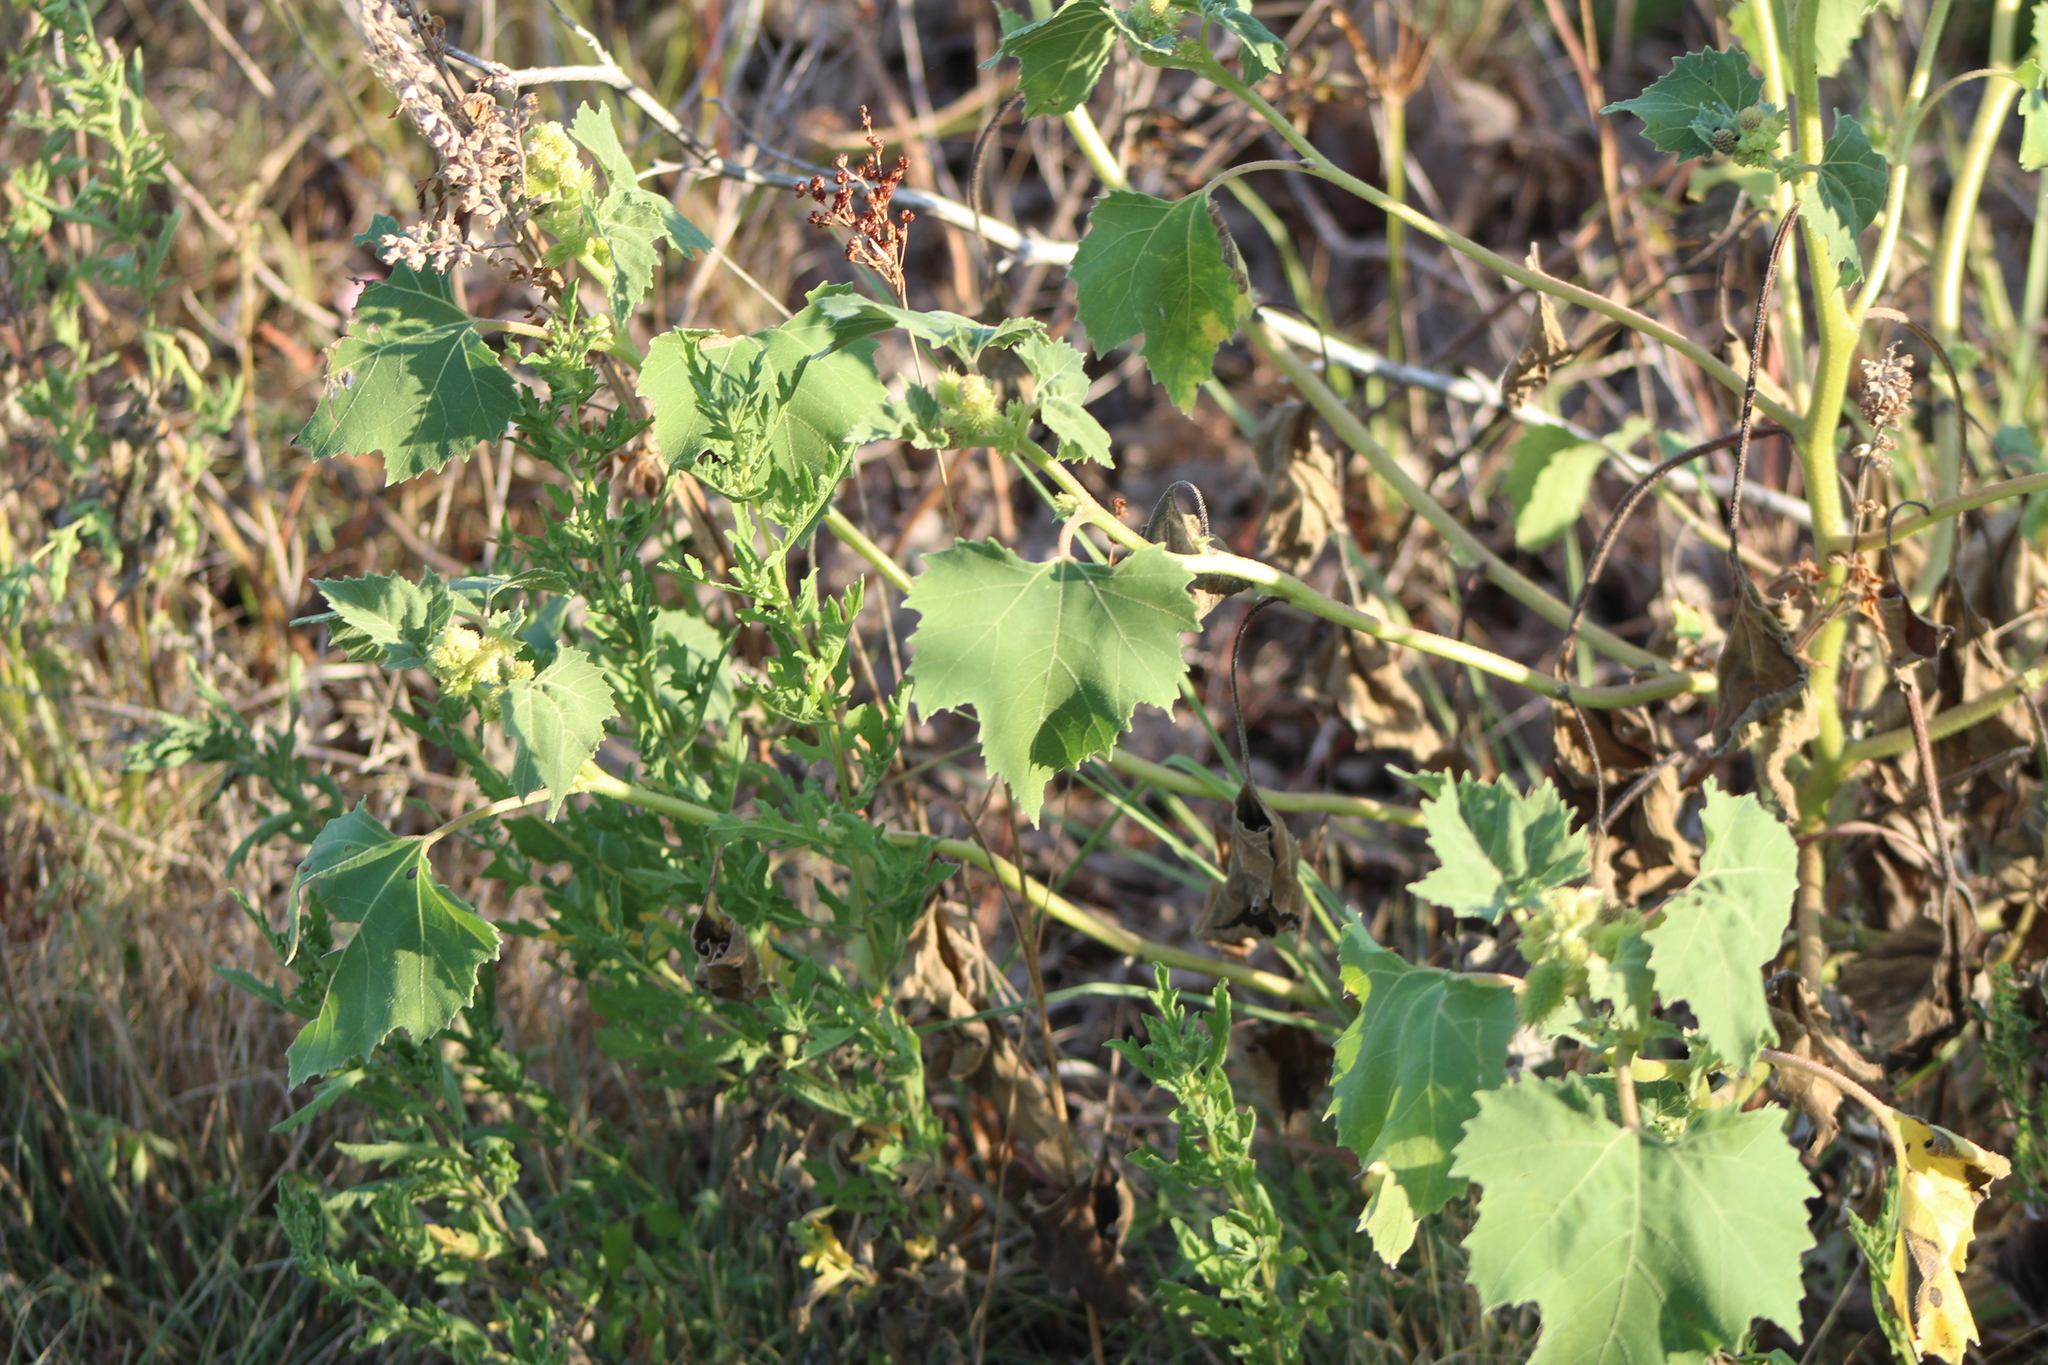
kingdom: Plantae
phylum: Tracheophyta
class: Magnoliopsida
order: Asterales
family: Asteraceae
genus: Xanthium
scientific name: Xanthium strumarium
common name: Rough cocklebur
